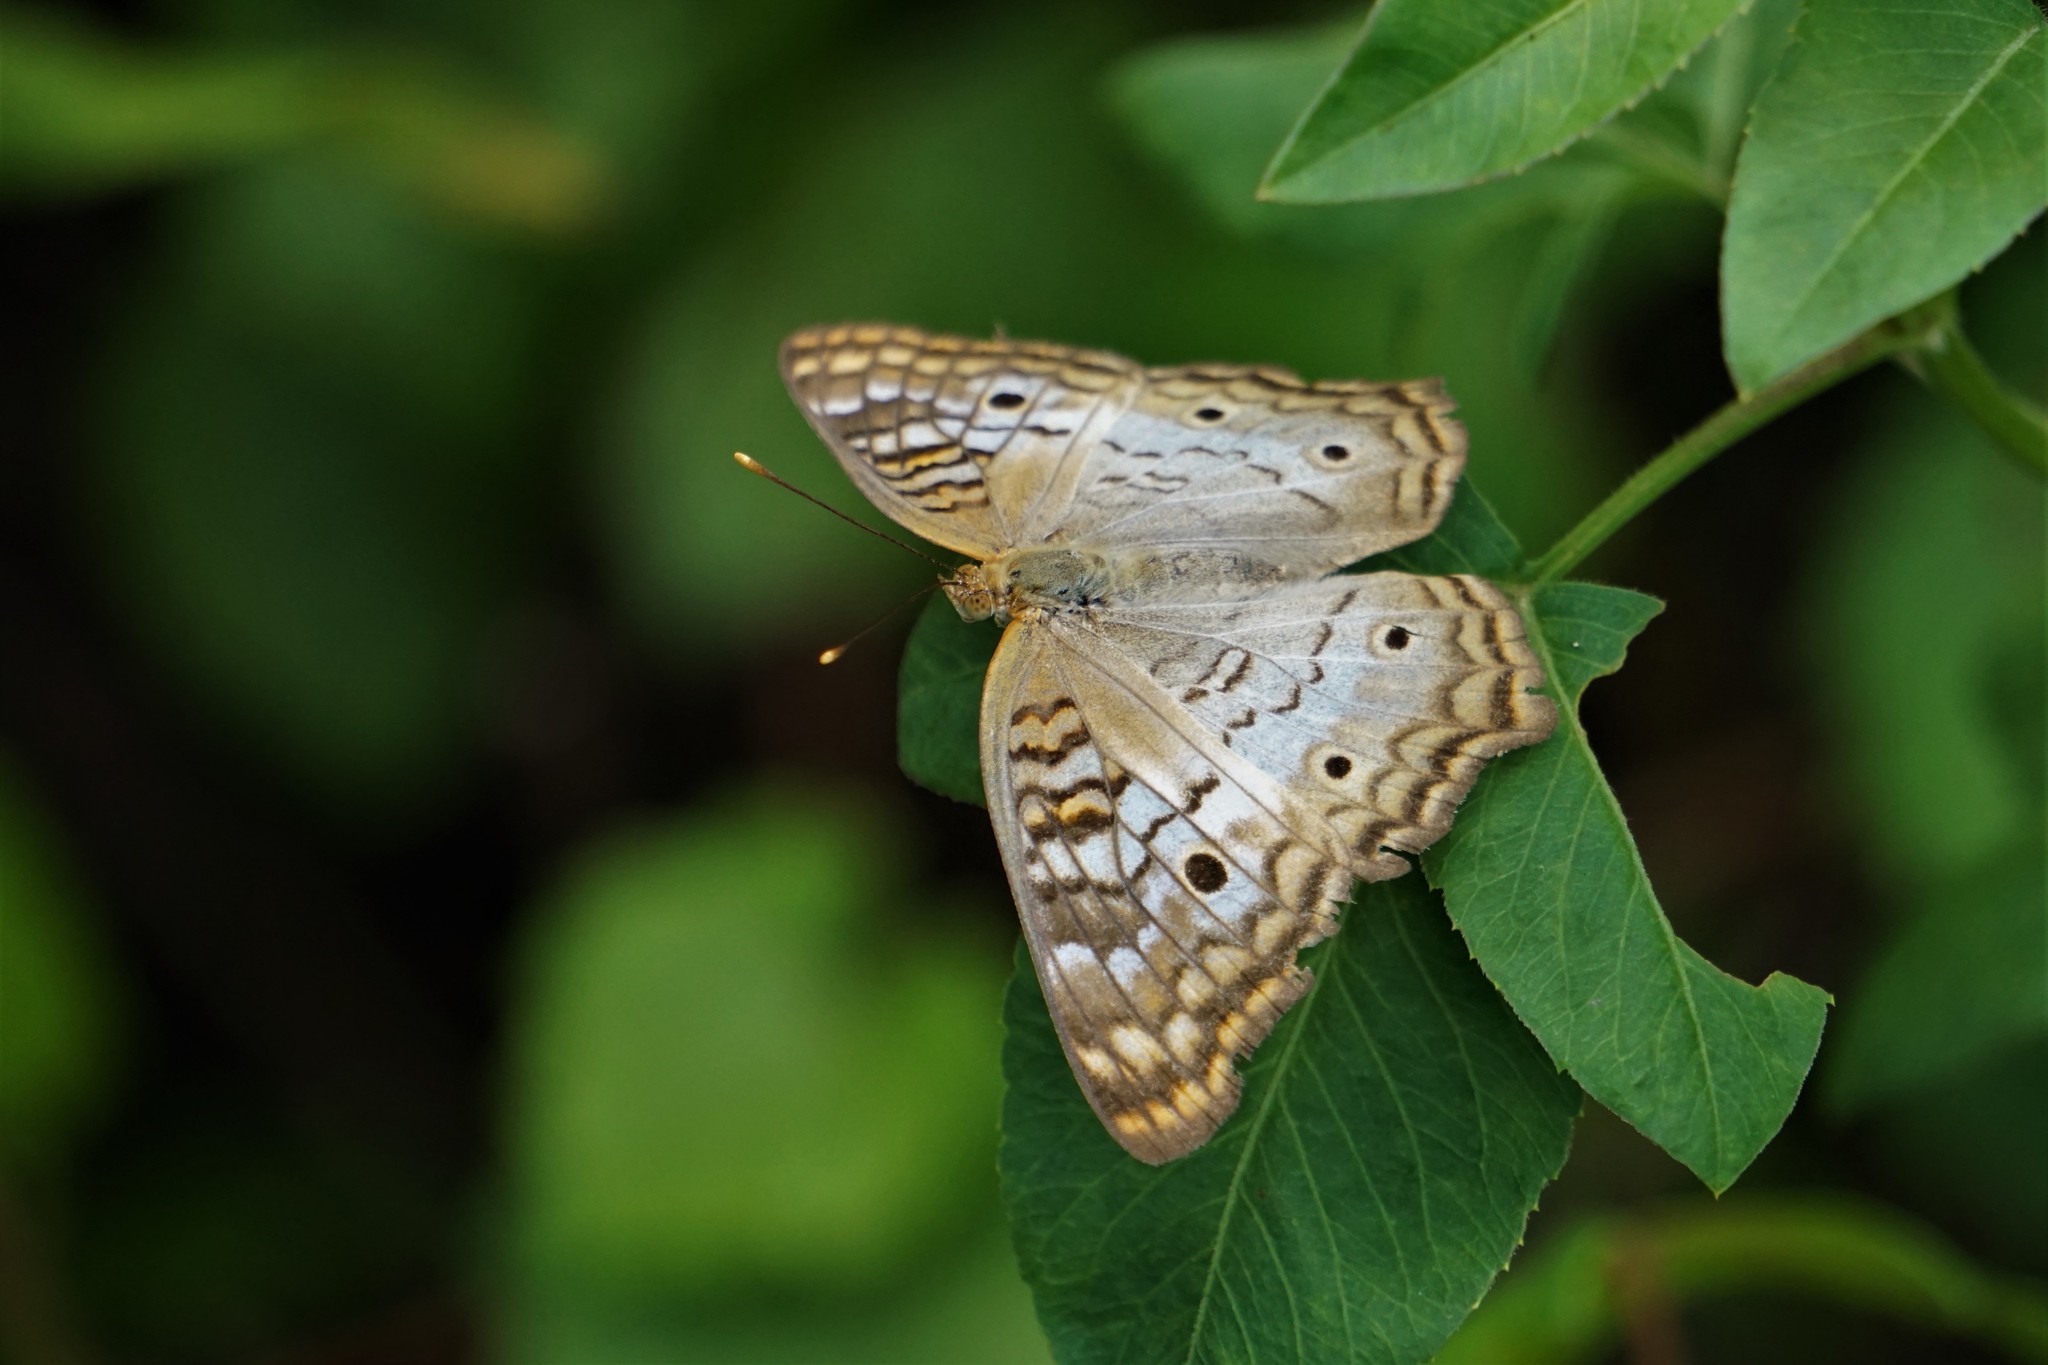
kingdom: Animalia
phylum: Arthropoda
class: Insecta
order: Lepidoptera
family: Nymphalidae
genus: Anartia
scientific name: Anartia jatrophae
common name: White peacock
